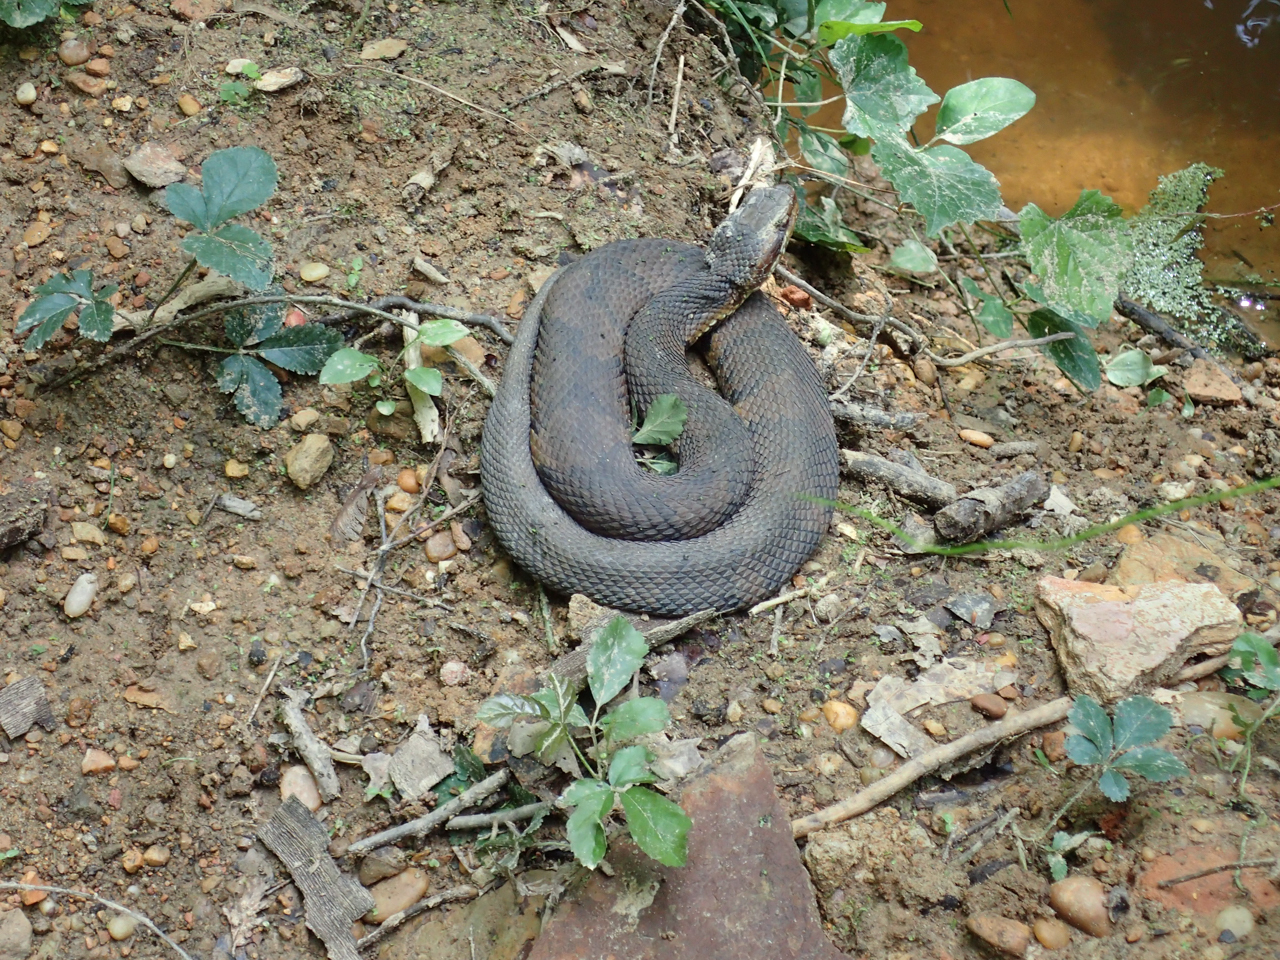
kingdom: Animalia
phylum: Chordata
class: Squamata
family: Viperidae
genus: Agkistrodon
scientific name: Agkistrodon piscivorus
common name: Cottonmouth
